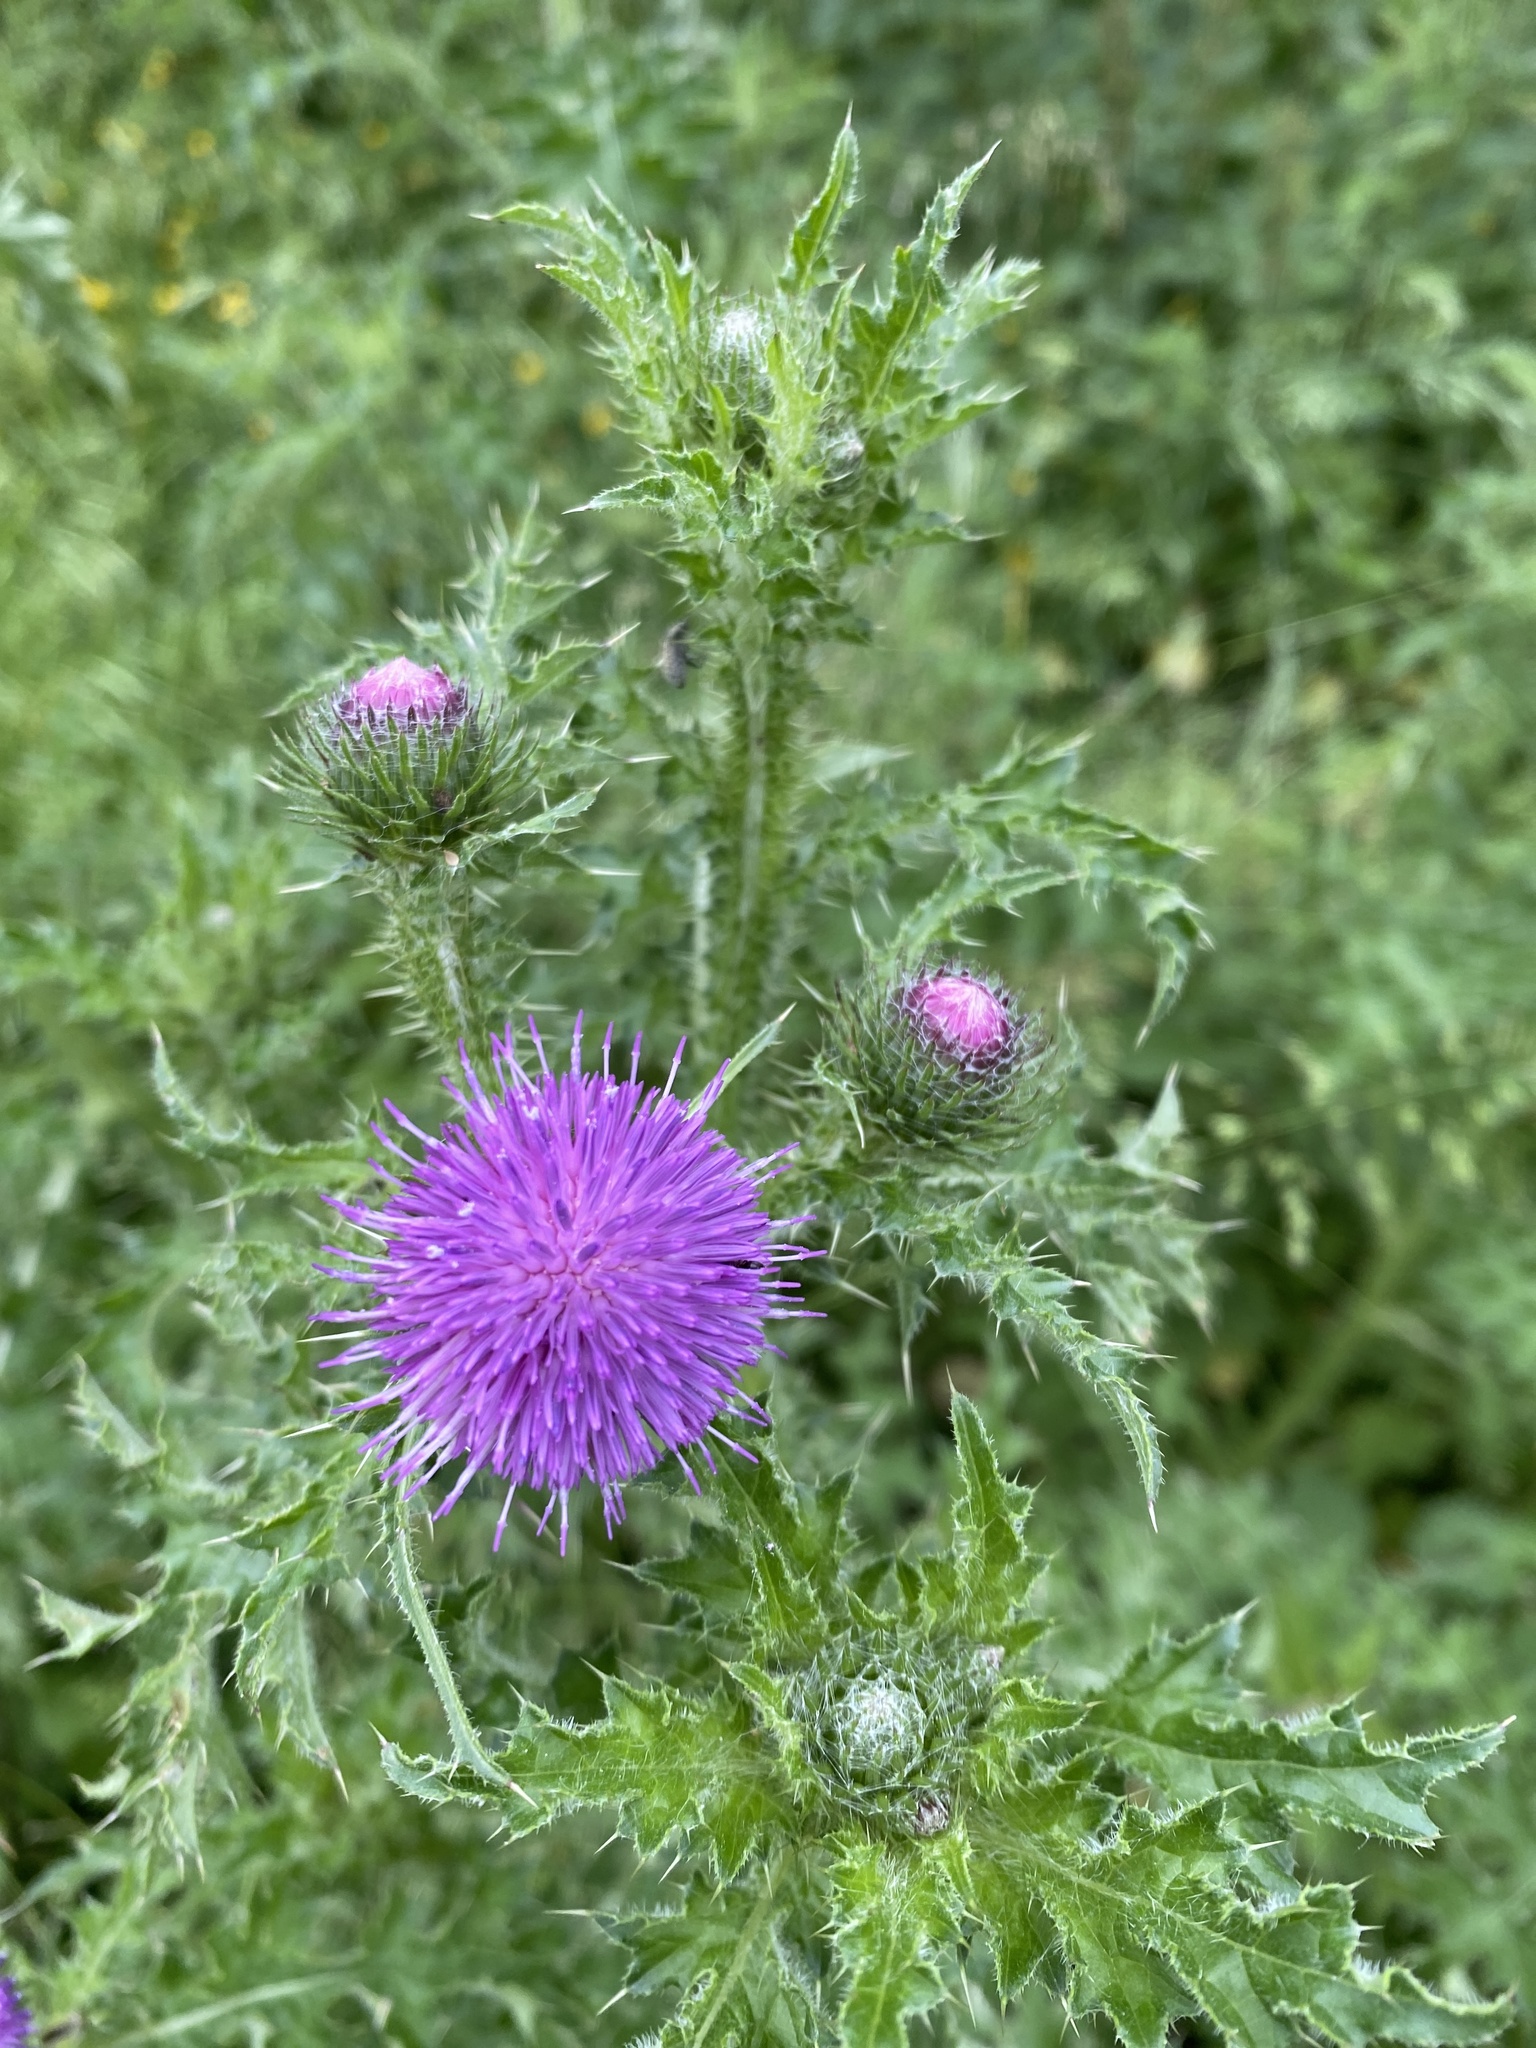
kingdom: Plantae
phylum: Tracheophyta
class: Magnoliopsida
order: Asterales
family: Asteraceae
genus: Carduus
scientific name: Carduus crispus
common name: Welted thistle
